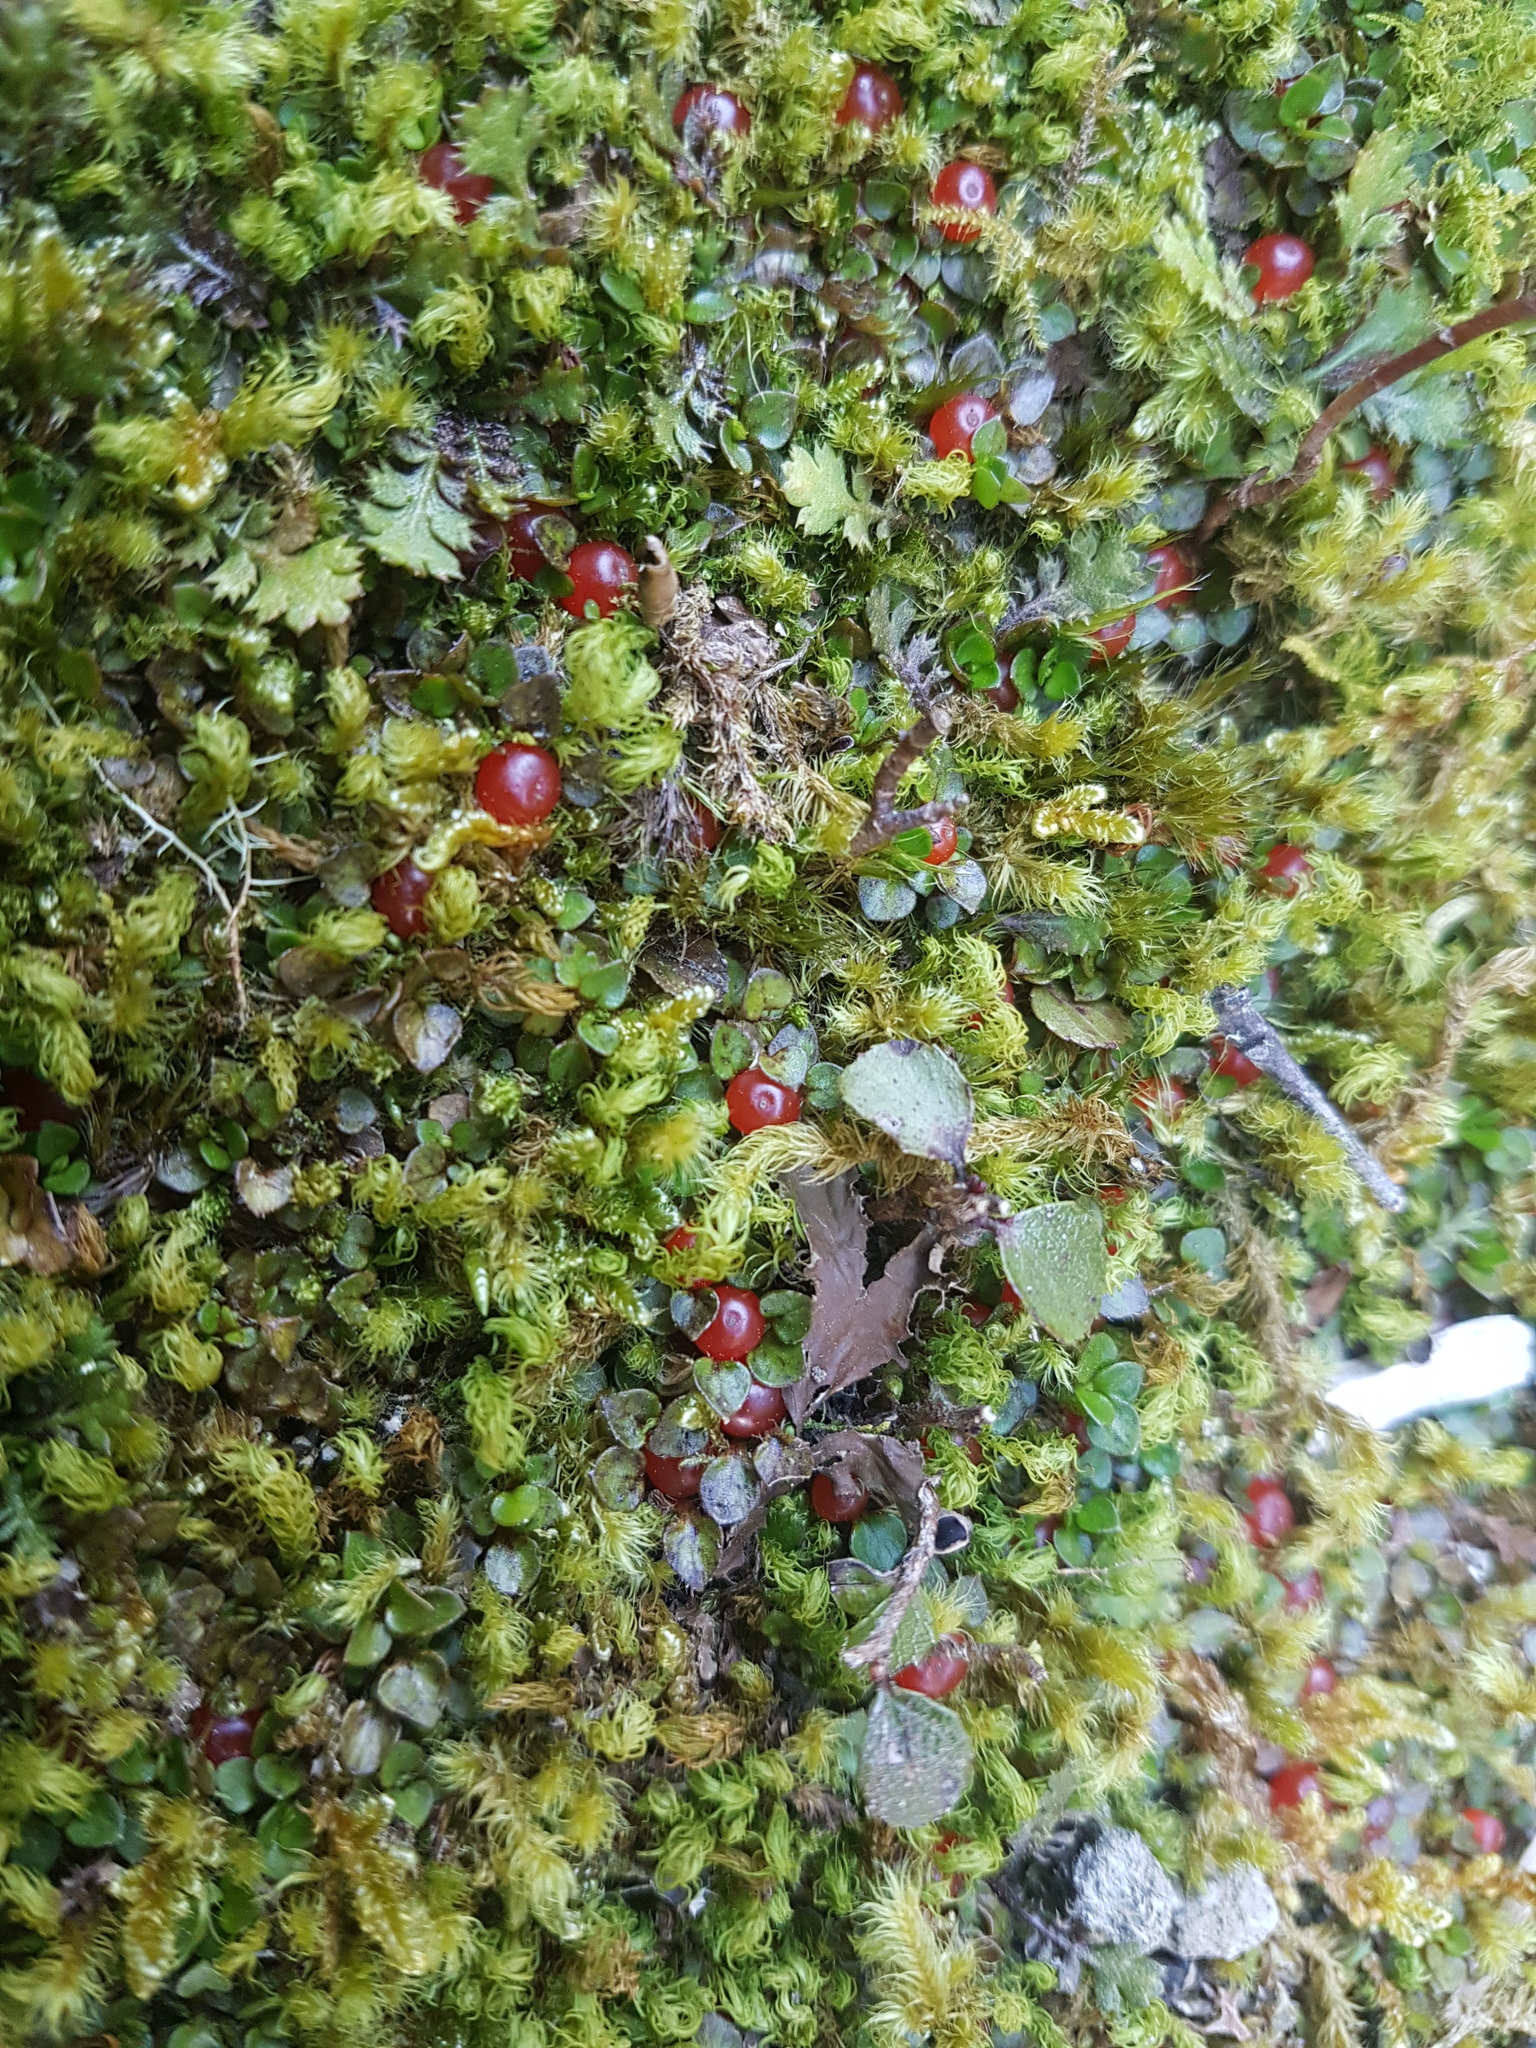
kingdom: Plantae
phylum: Tracheophyta
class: Magnoliopsida
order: Gentianales
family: Rubiaceae
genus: Nertera
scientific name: Nertera ciliata
